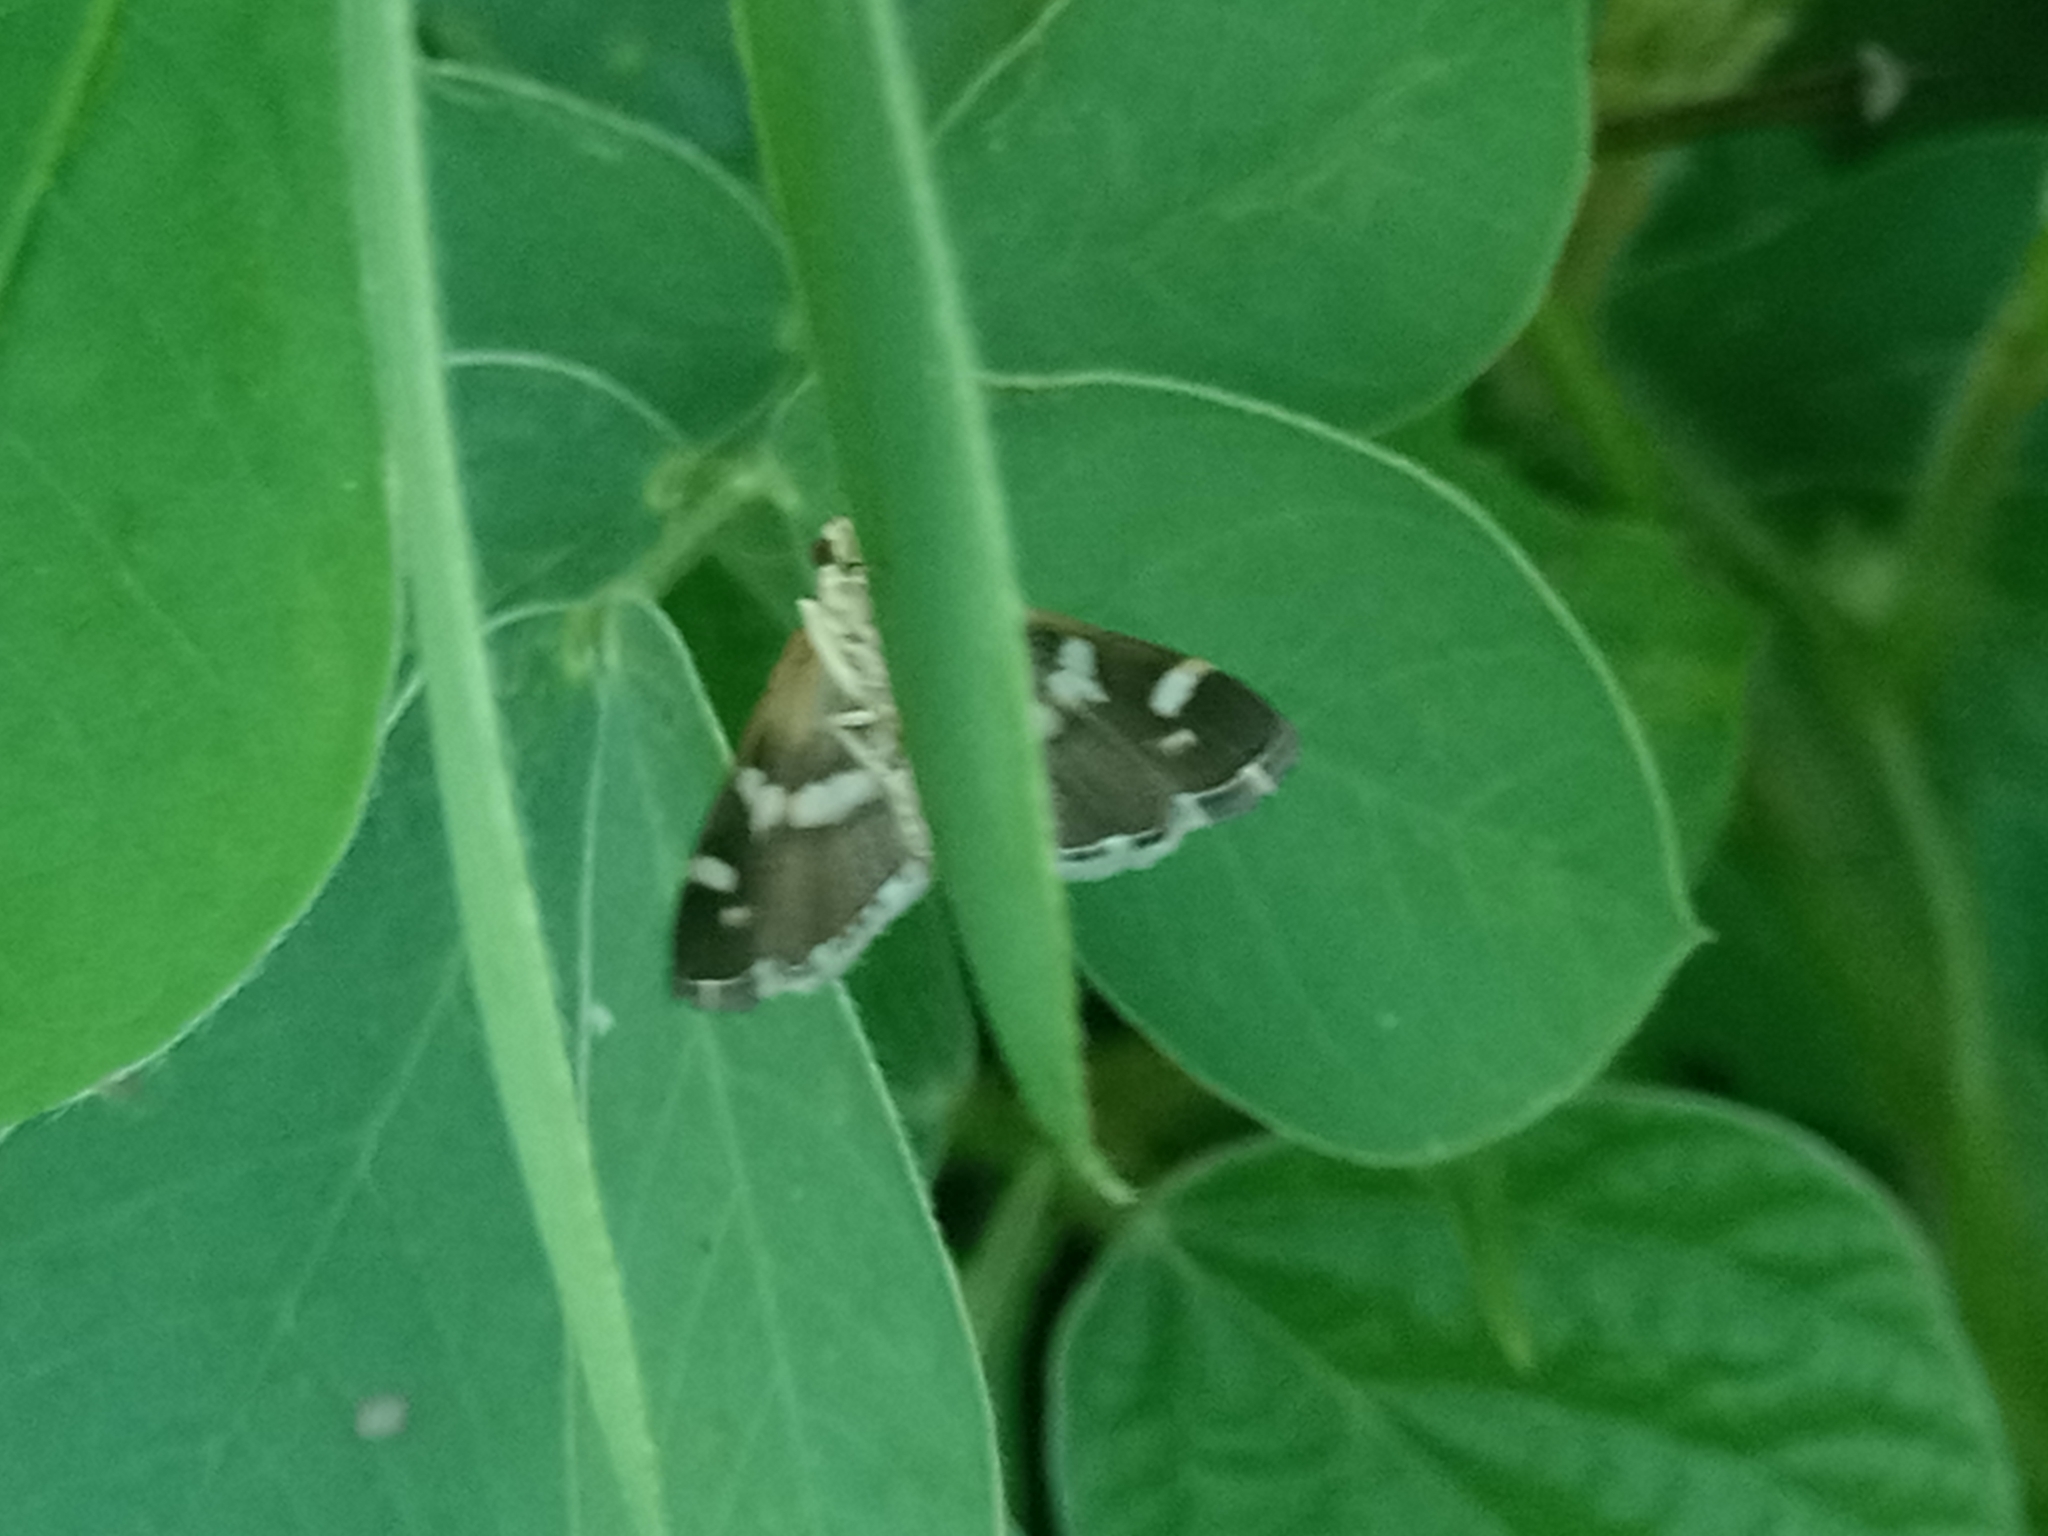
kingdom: Animalia
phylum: Arthropoda
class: Insecta
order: Lepidoptera
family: Crambidae
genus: Spoladea
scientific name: Spoladea recurvalis
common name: Beet webworm moth
